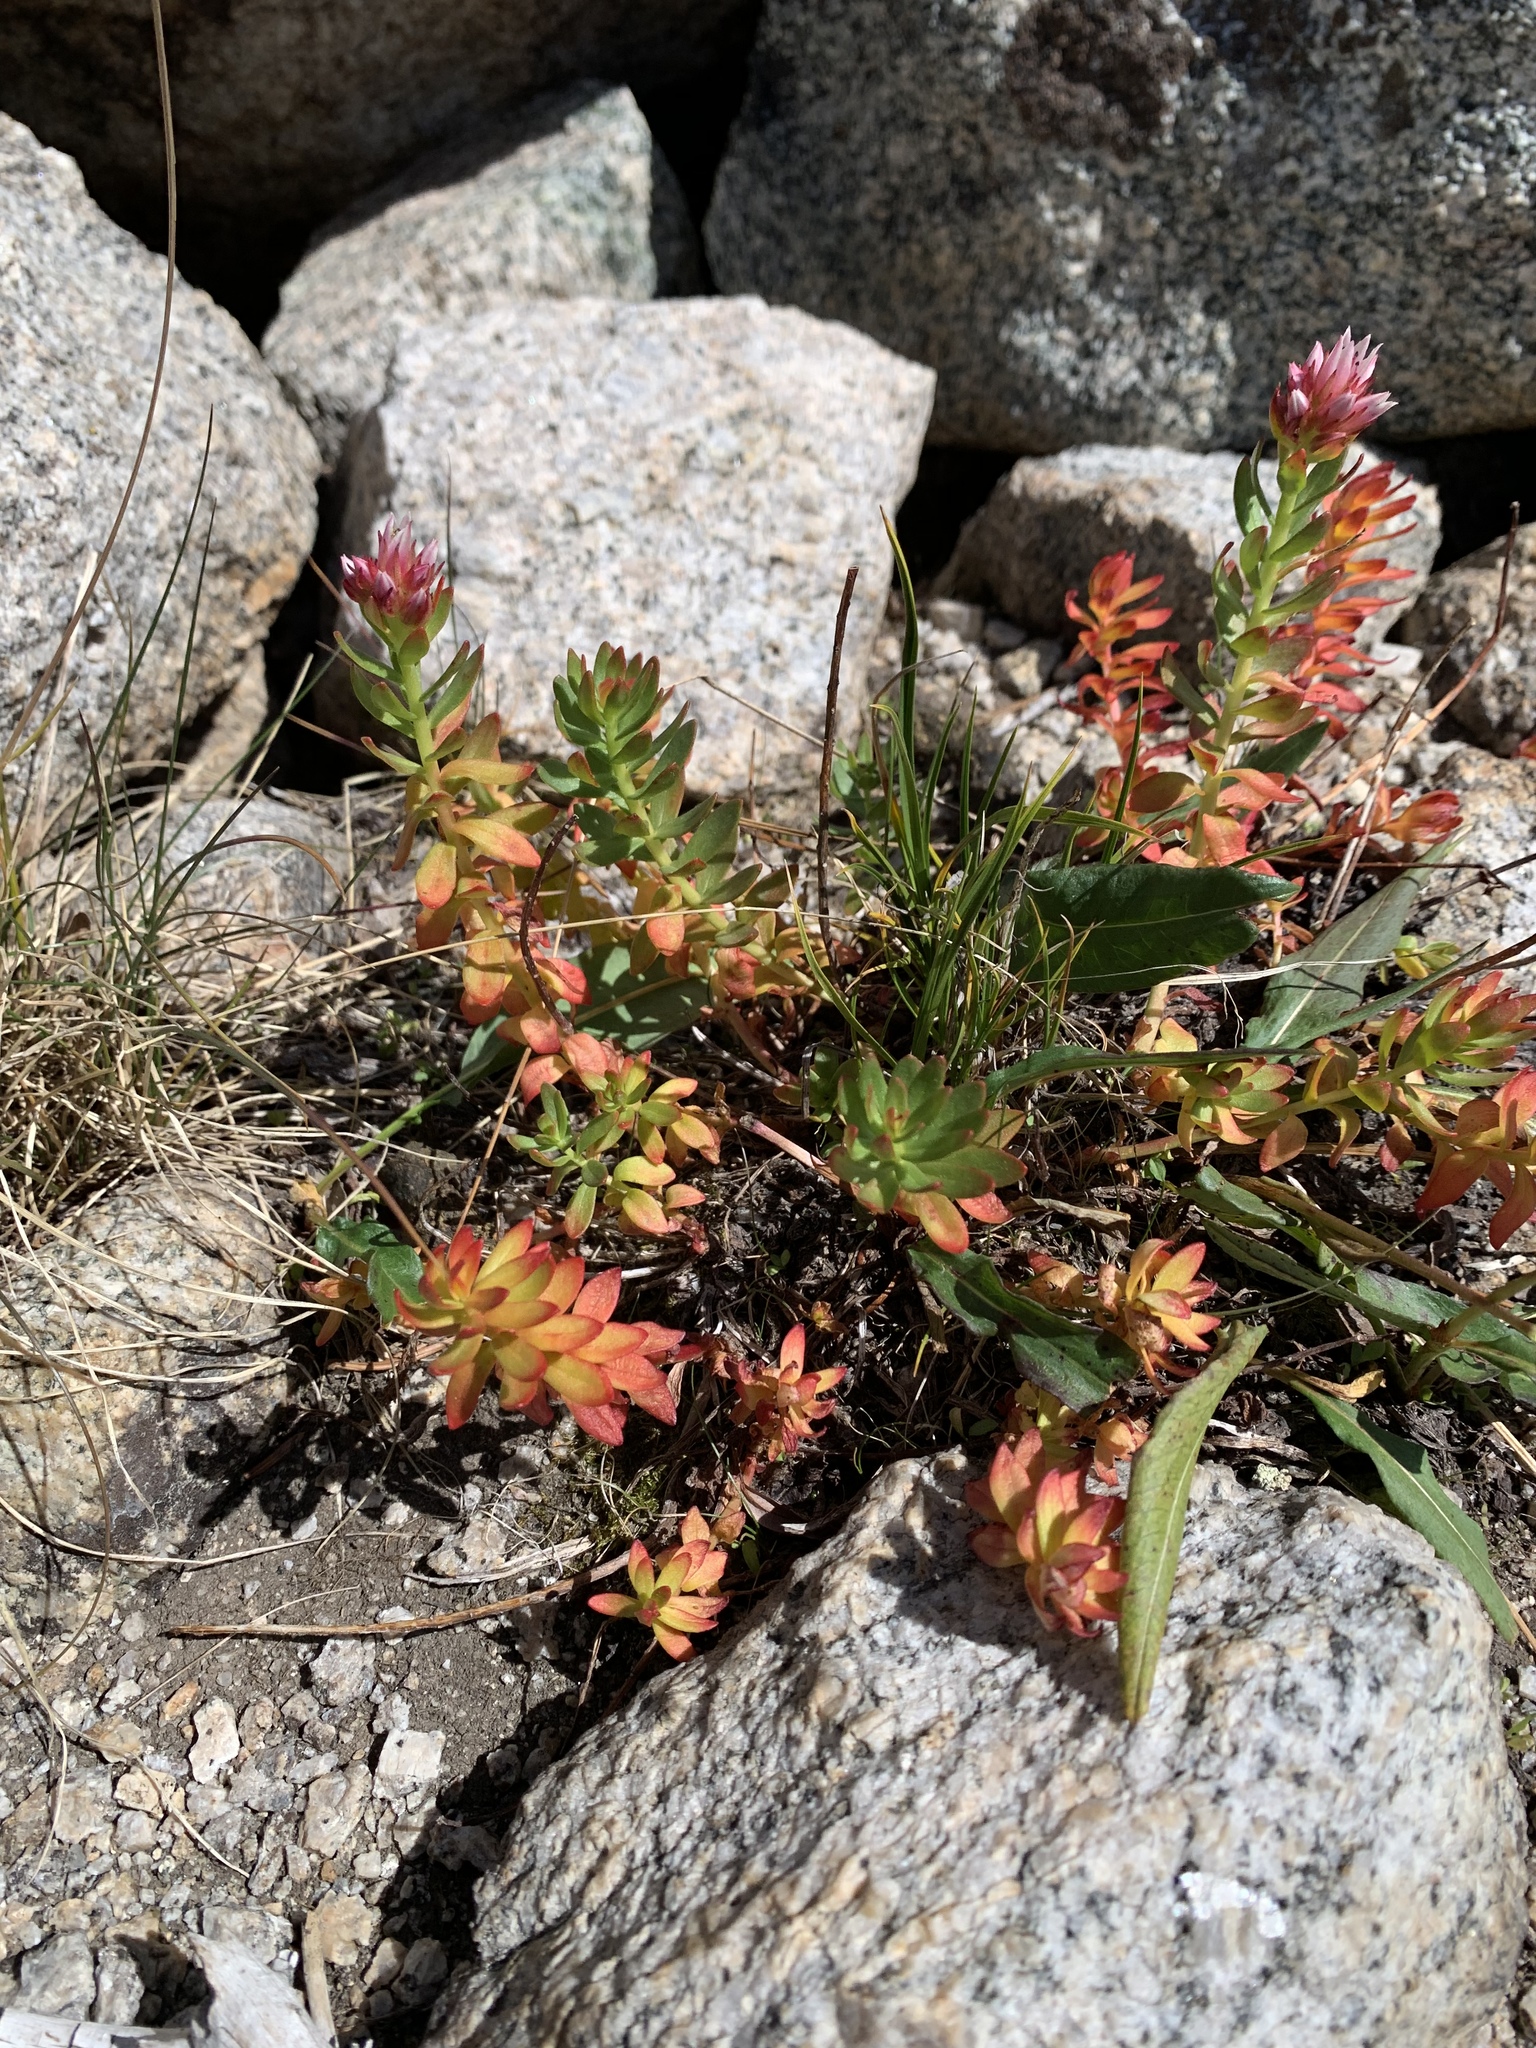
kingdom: Plantae
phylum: Tracheophyta
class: Magnoliopsida
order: Saxifragales
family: Crassulaceae
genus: Rhodiola
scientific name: Rhodiola rhodantha
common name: Red orpine
